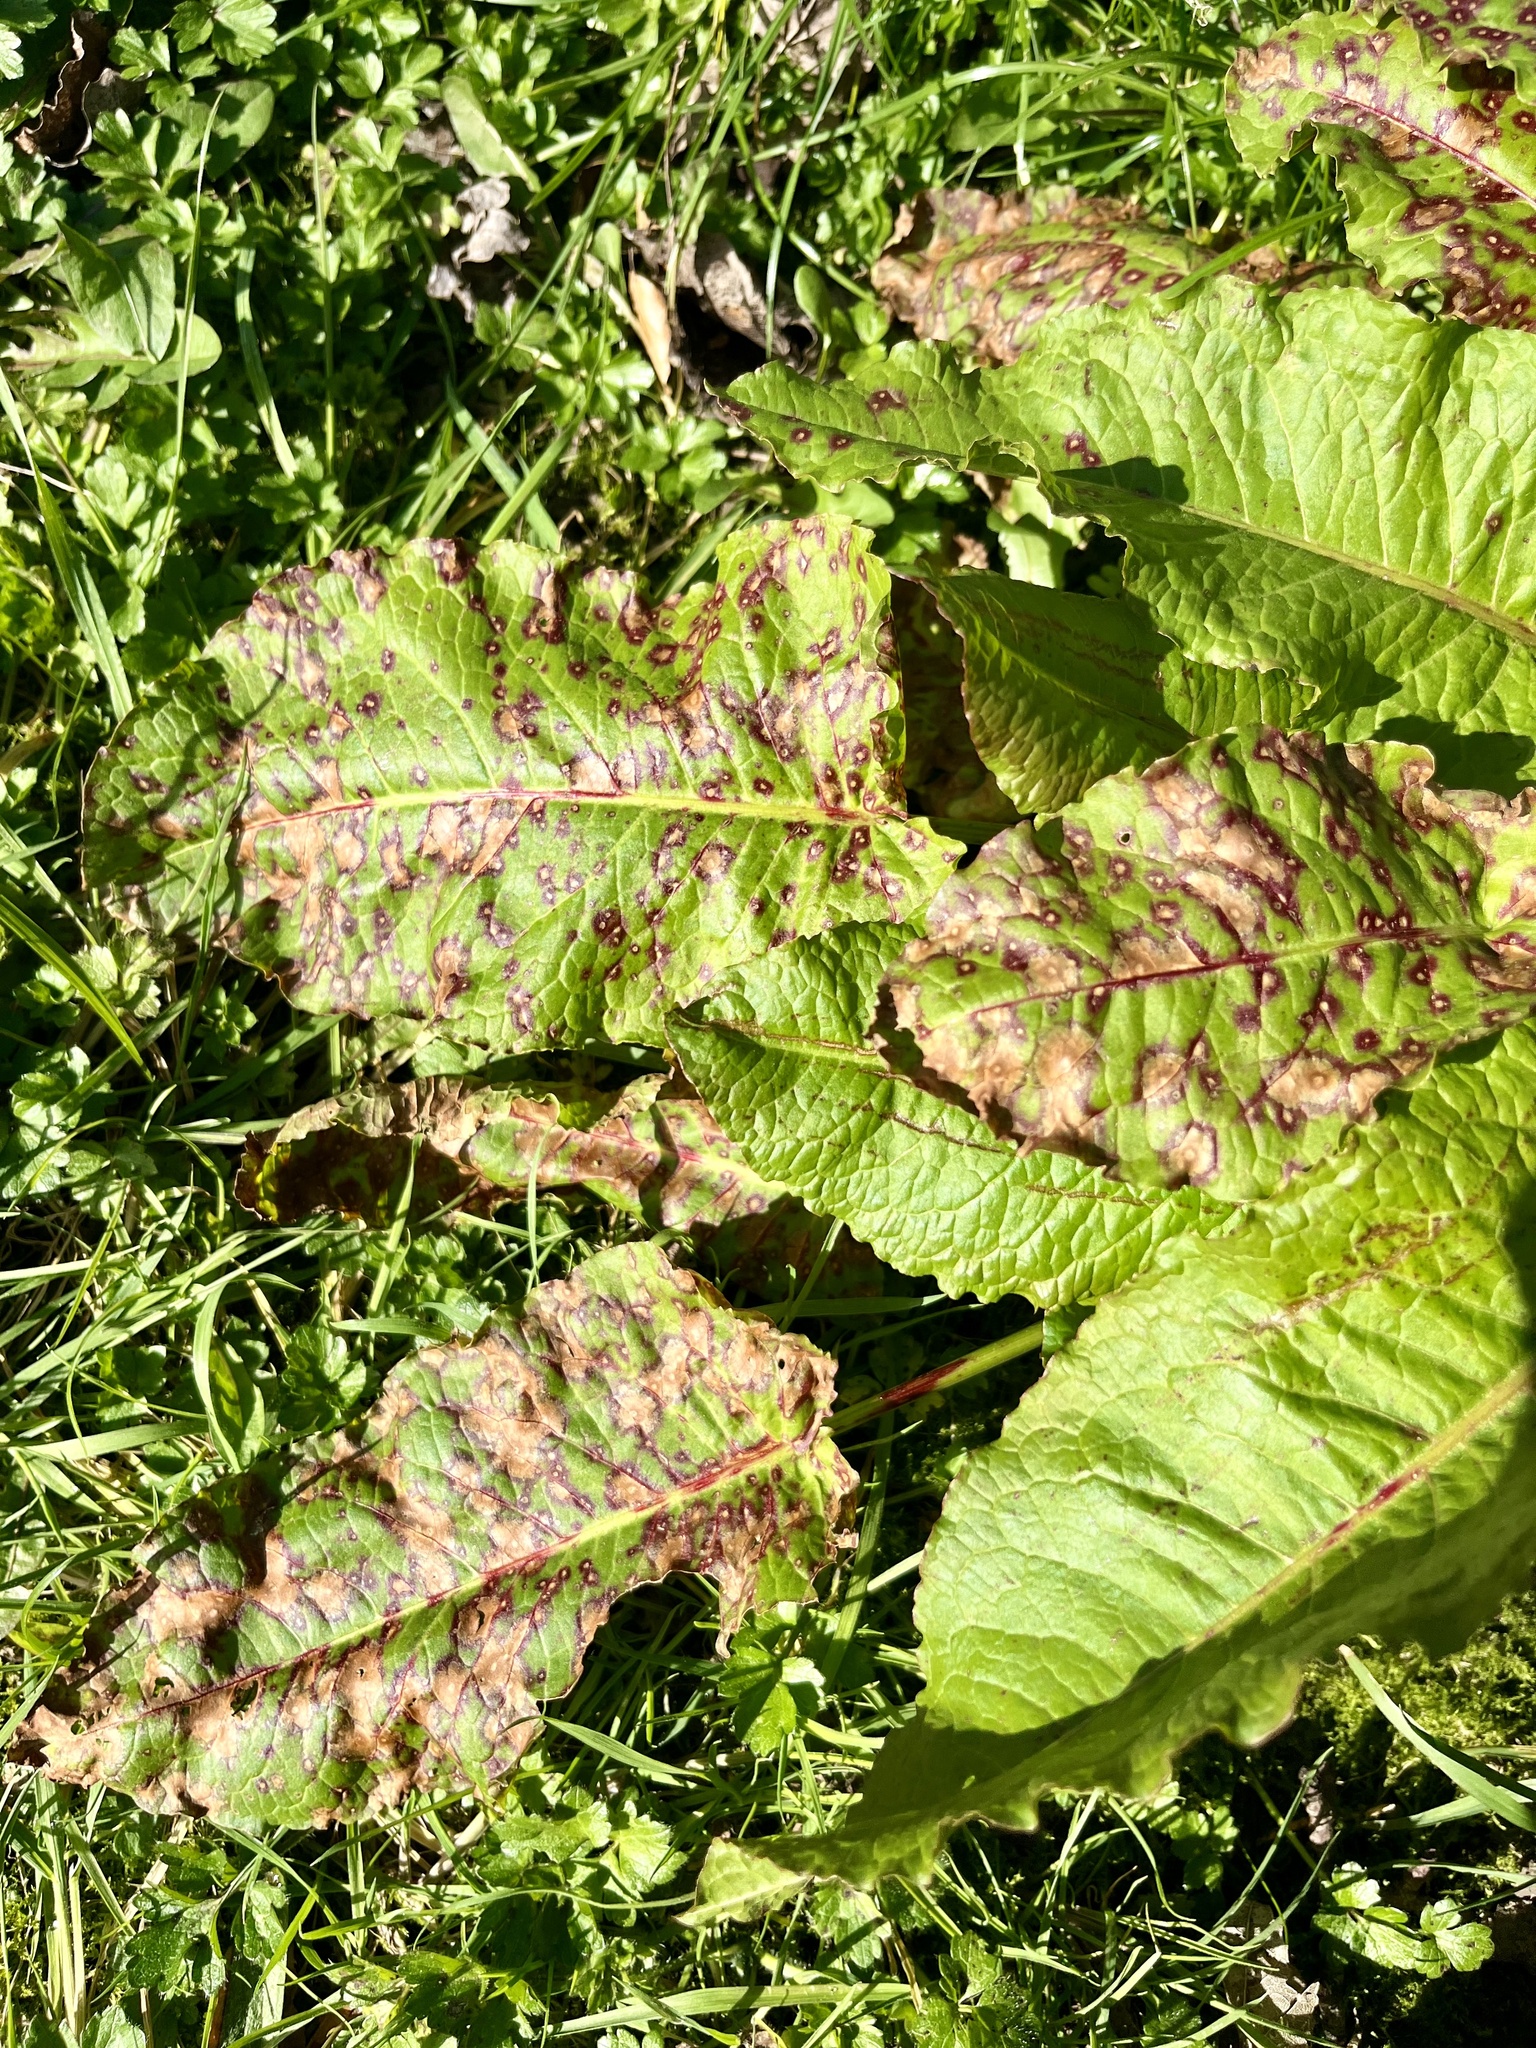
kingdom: Fungi
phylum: Ascomycota
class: Dothideomycetes
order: Mycosphaerellales
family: Mycosphaerellaceae
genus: Ramularia
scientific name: Ramularia rubella
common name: Red dock spot
